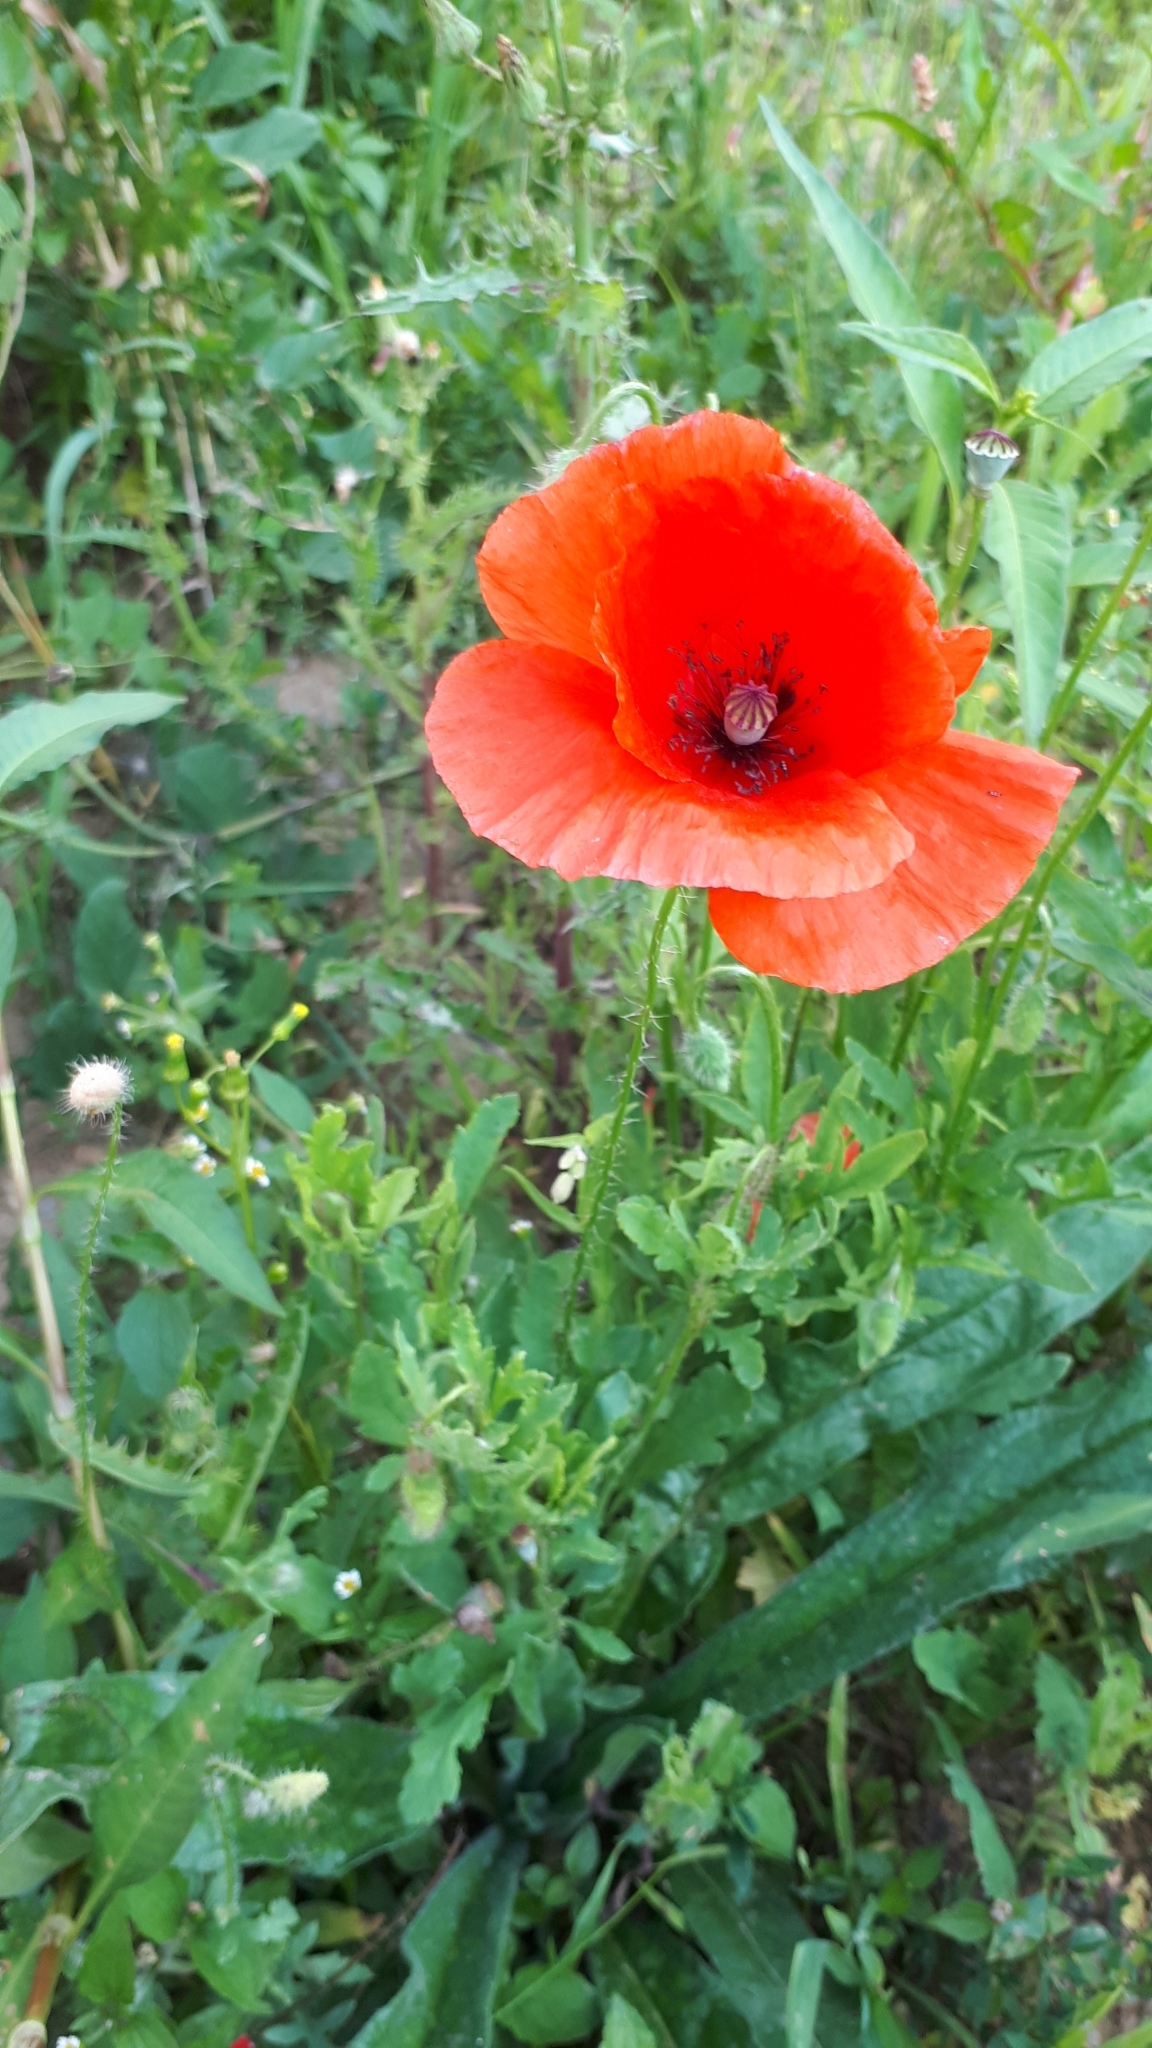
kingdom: Plantae
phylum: Tracheophyta
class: Magnoliopsida
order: Ranunculales
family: Papaveraceae
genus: Papaver
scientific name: Papaver rhoeas
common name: Corn poppy
